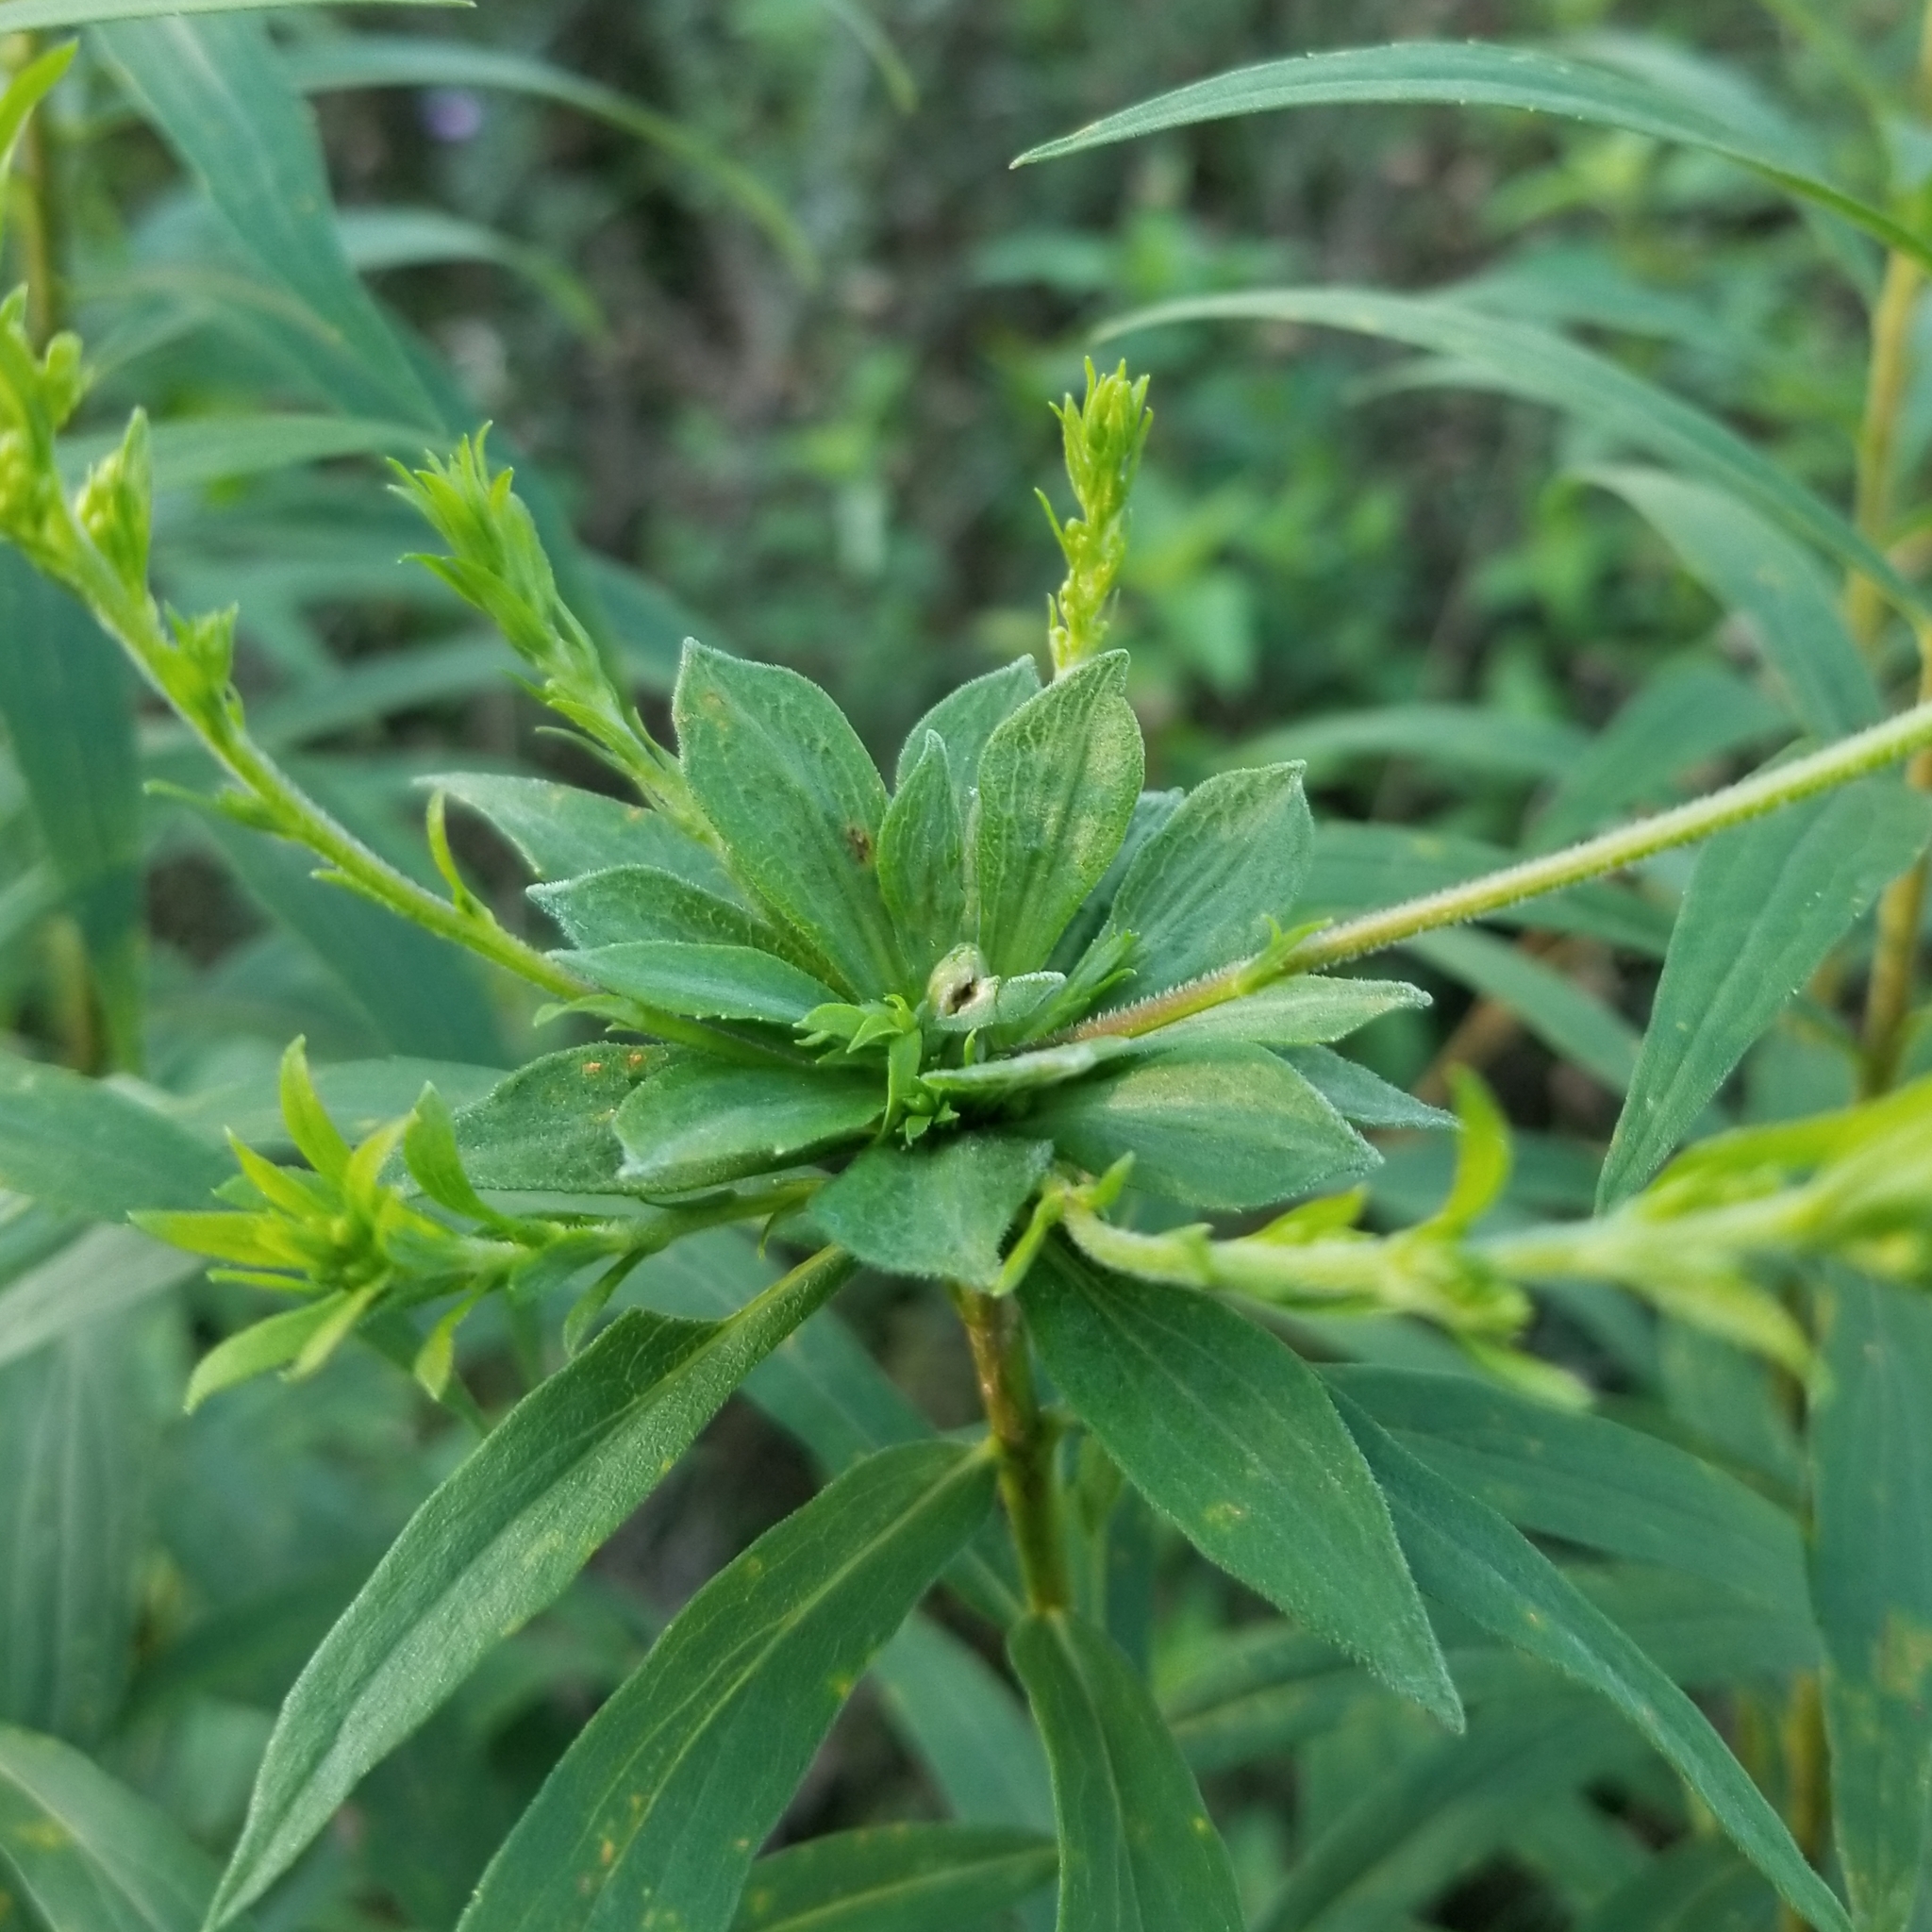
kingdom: Animalia
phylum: Arthropoda
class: Insecta
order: Diptera
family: Cecidomyiidae
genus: Asphondylia
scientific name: Asphondylia solidaginis
